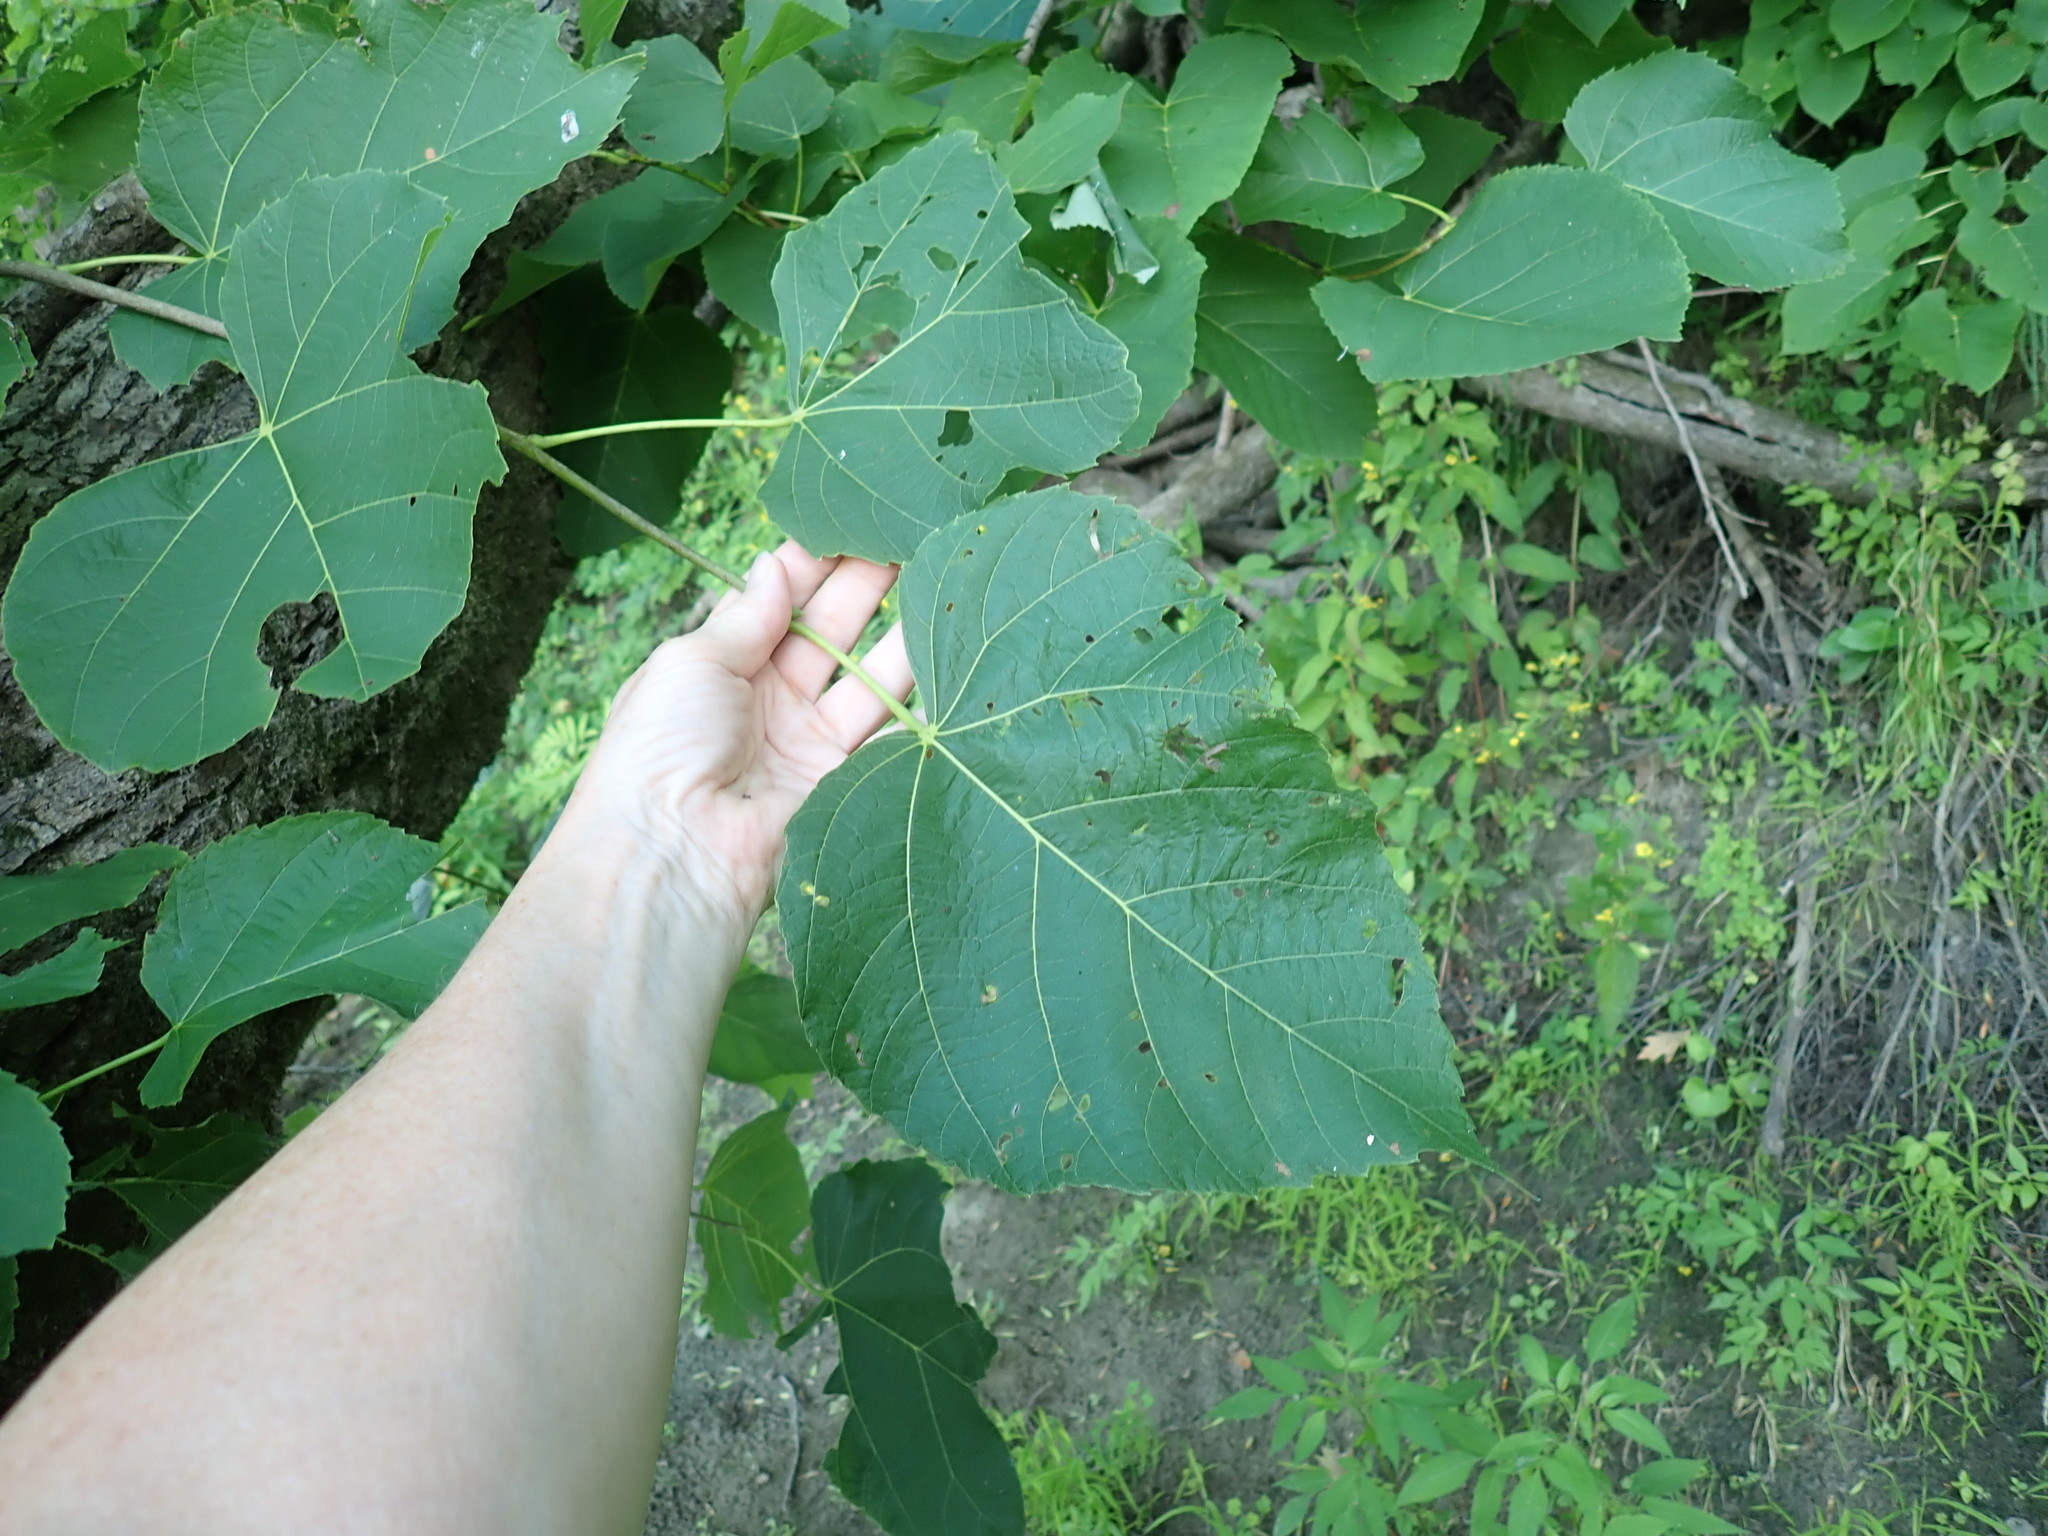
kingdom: Plantae
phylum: Tracheophyta
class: Magnoliopsida
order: Malvales
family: Malvaceae
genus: Tilia
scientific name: Tilia americana
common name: Basswood
